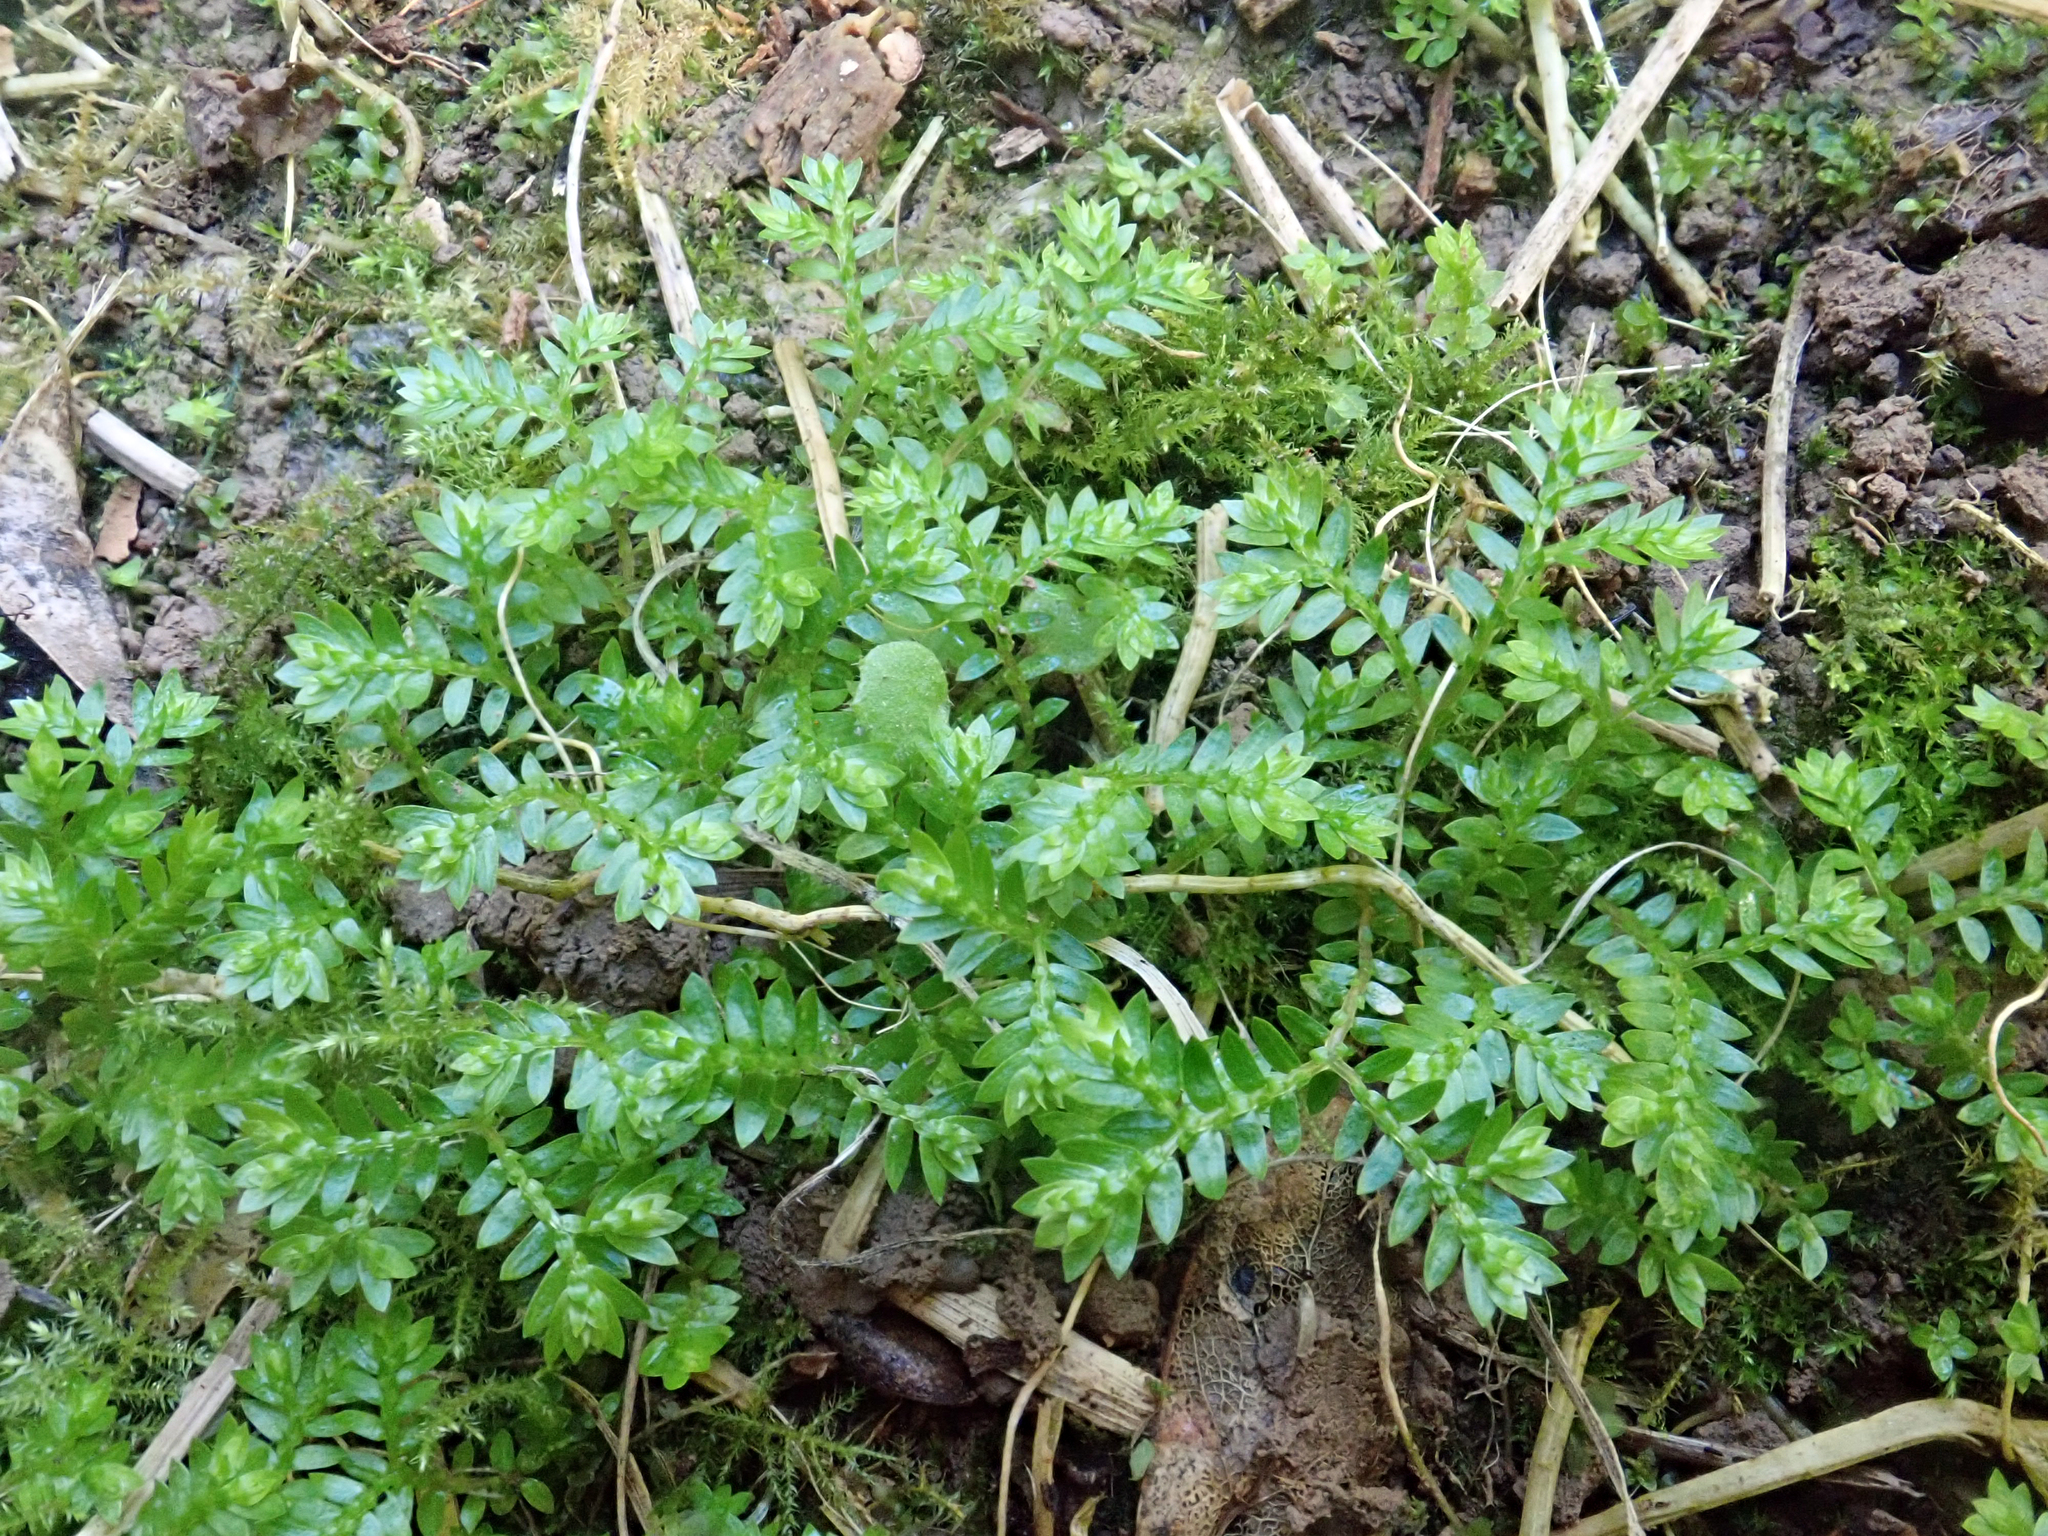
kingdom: Plantae
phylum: Tracheophyta
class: Lycopodiopsida
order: Selaginellales
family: Selaginellaceae
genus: Selaginella
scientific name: Selaginella kraussiana
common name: Krauss' spikemoss
